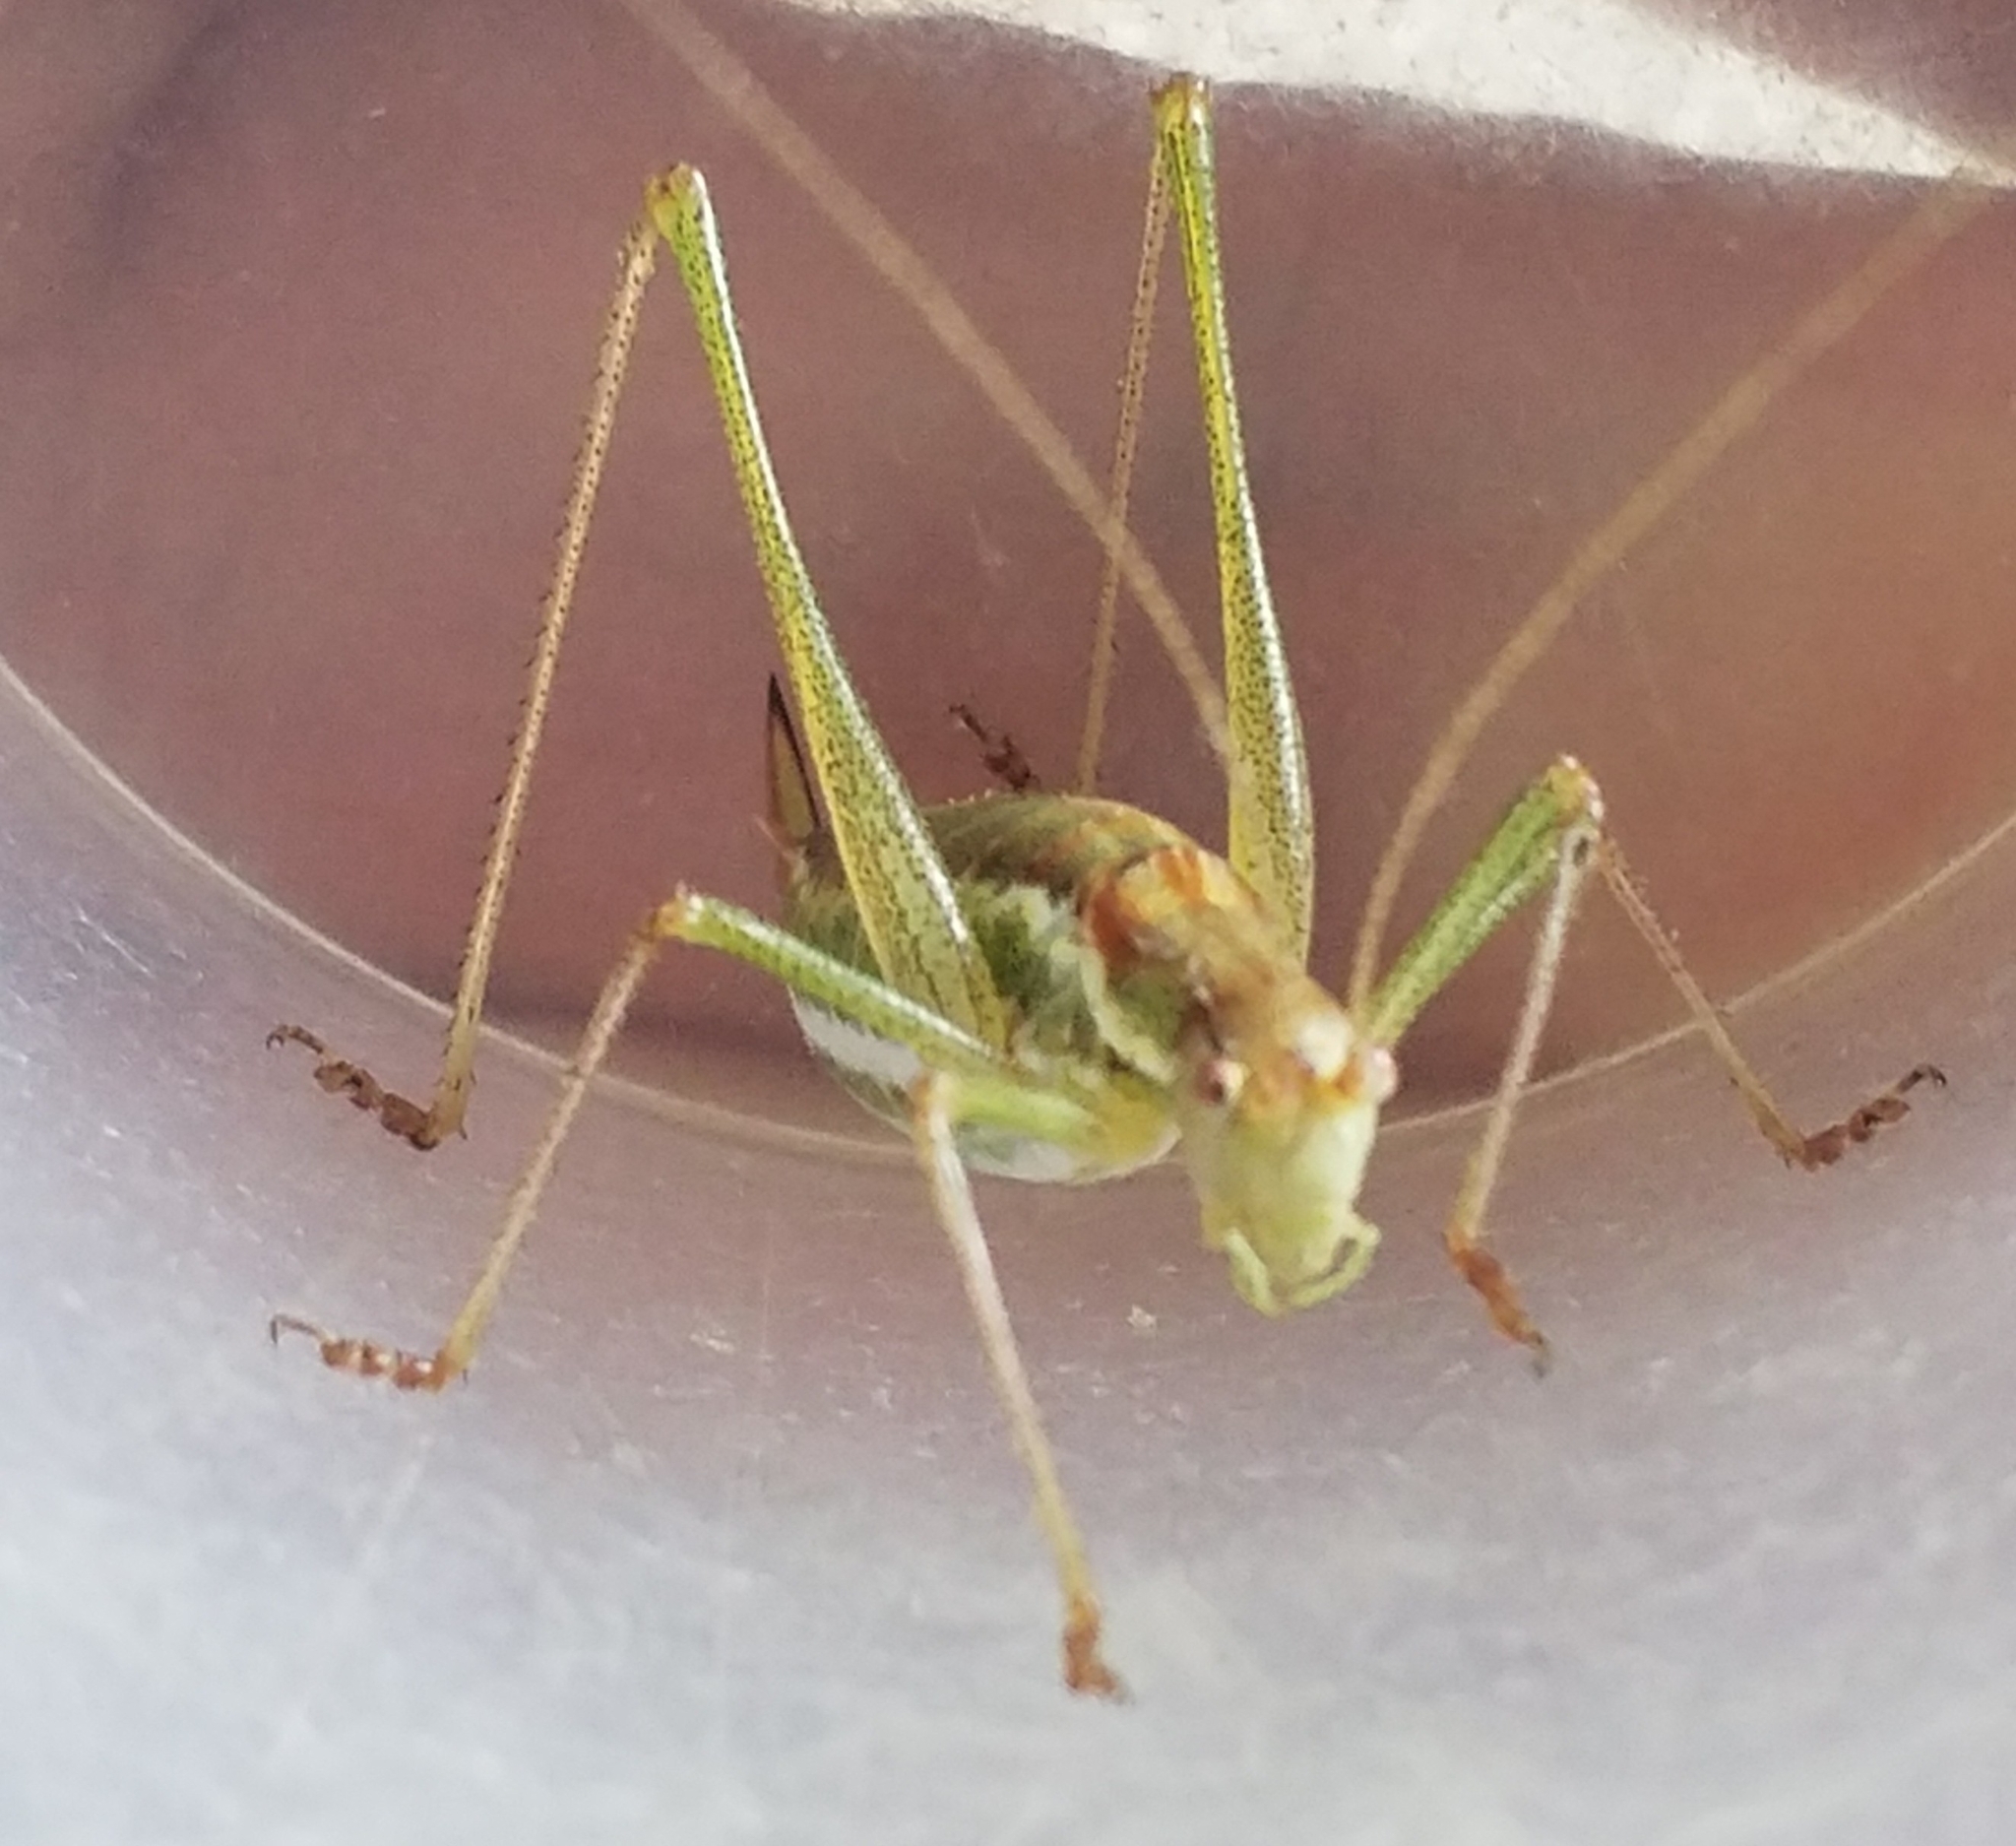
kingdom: Animalia
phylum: Arthropoda
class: Insecta
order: Orthoptera
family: Tettigoniidae
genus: Leptophyes
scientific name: Leptophyes albovittata
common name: Striped bush-cricket
